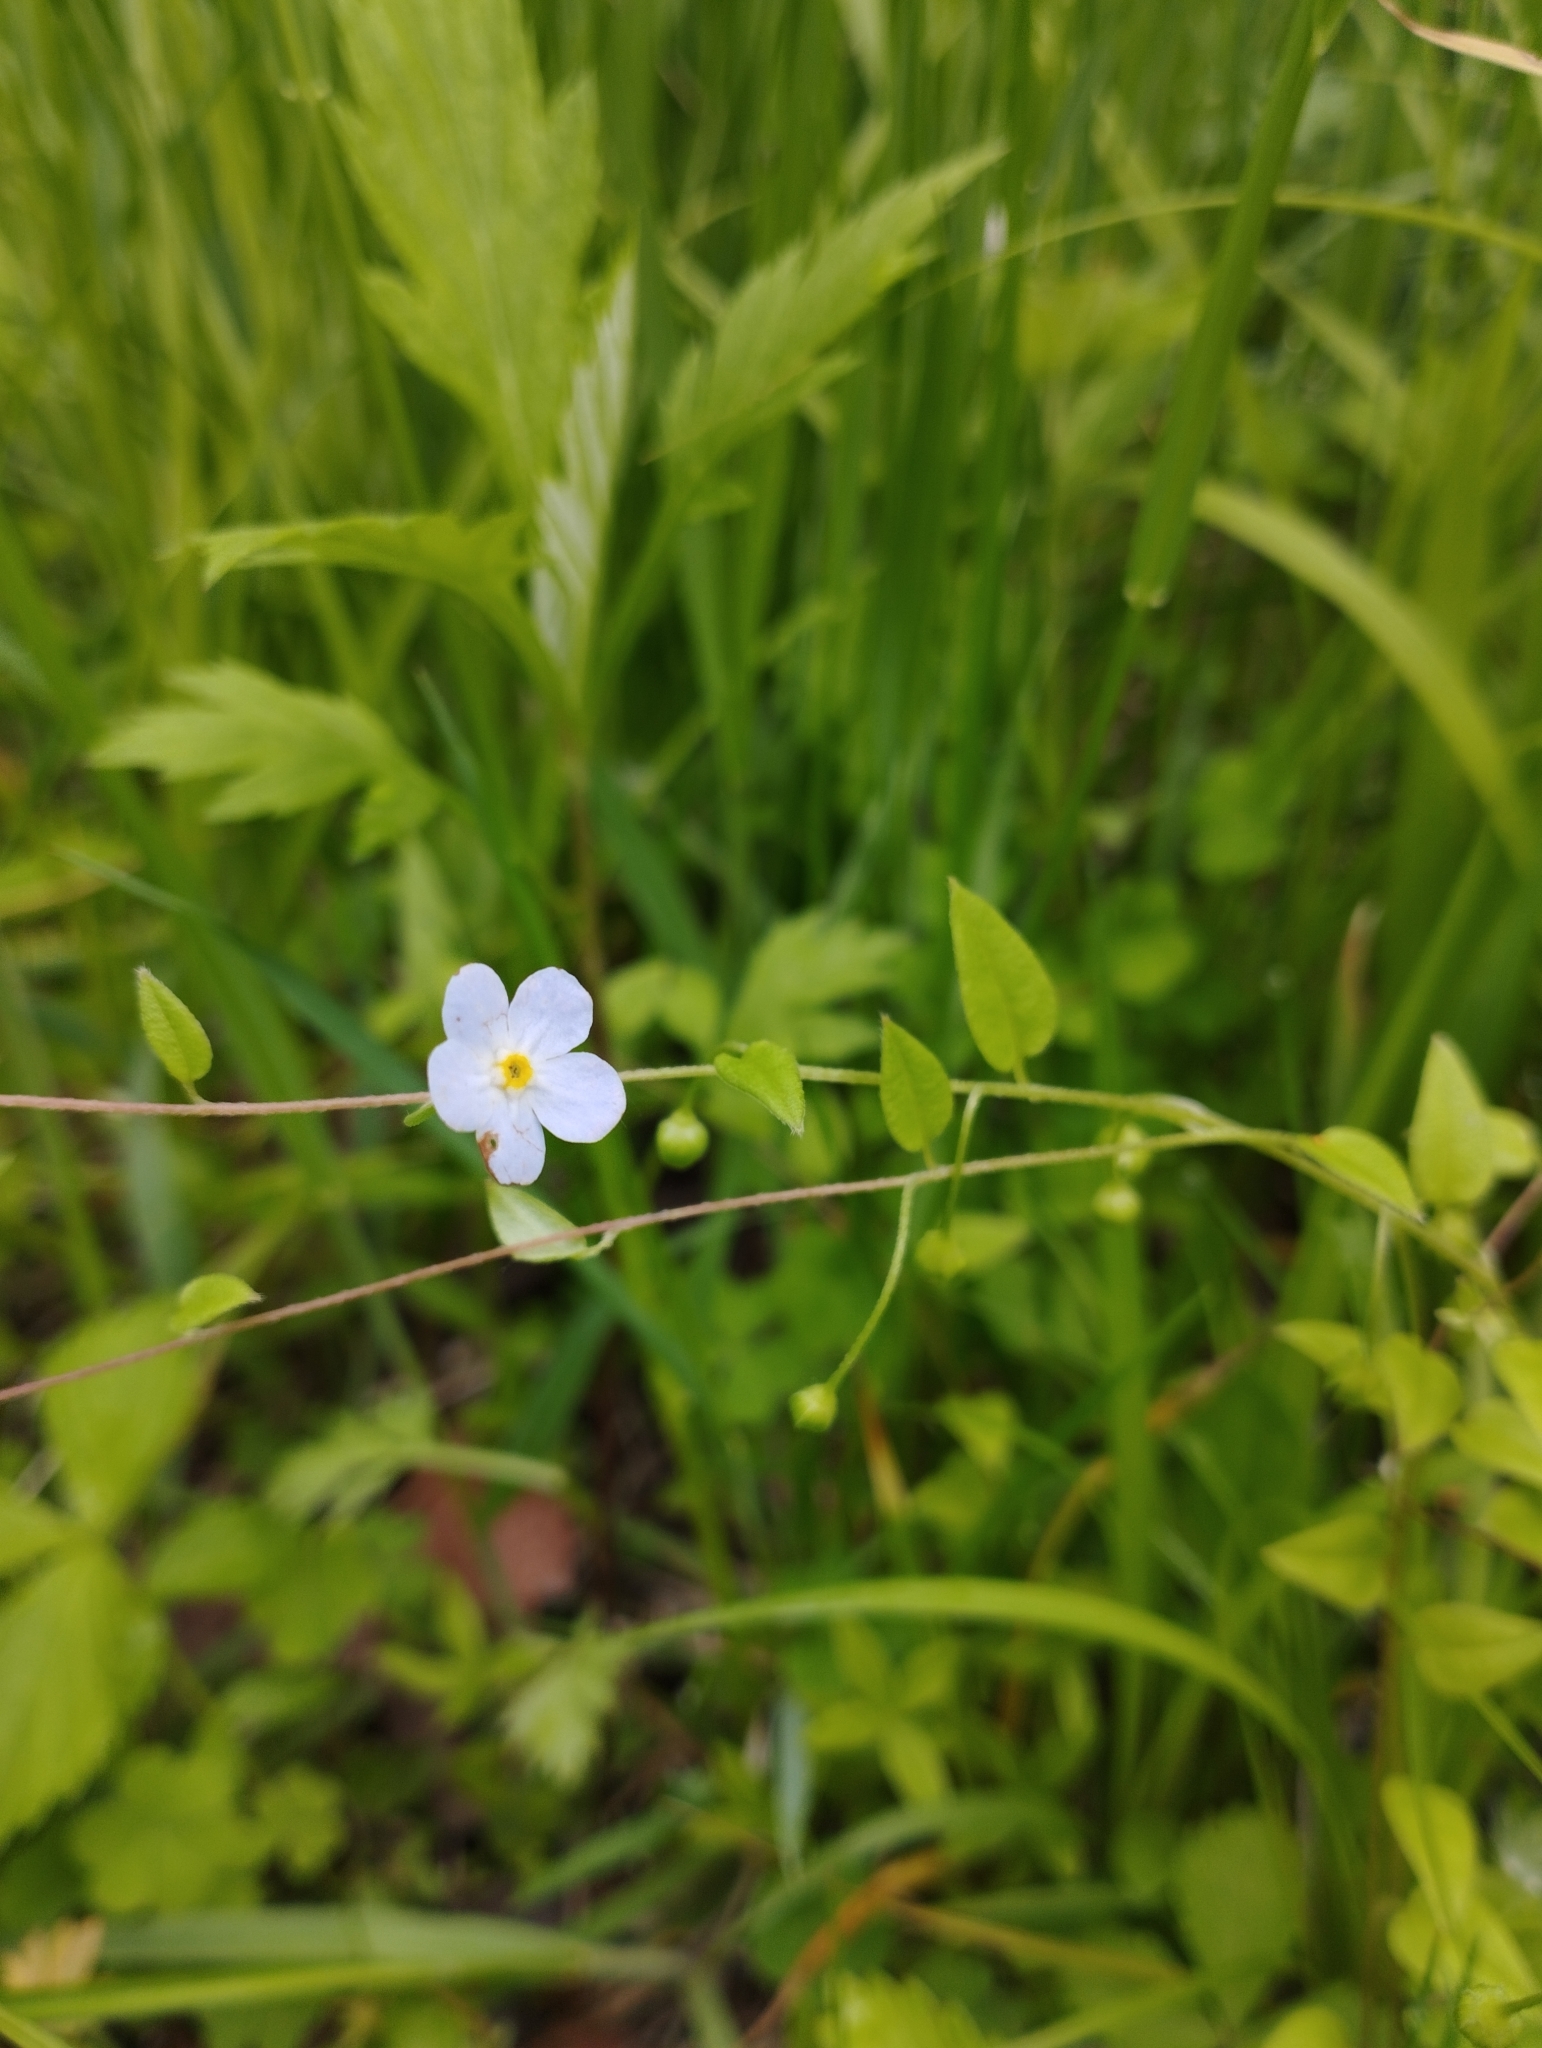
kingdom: Plantae
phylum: Tracheophyta
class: Magnoliopsida
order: Boraginales
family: Boraginaceae
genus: Trigonotis
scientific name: Trigonotis radicans
